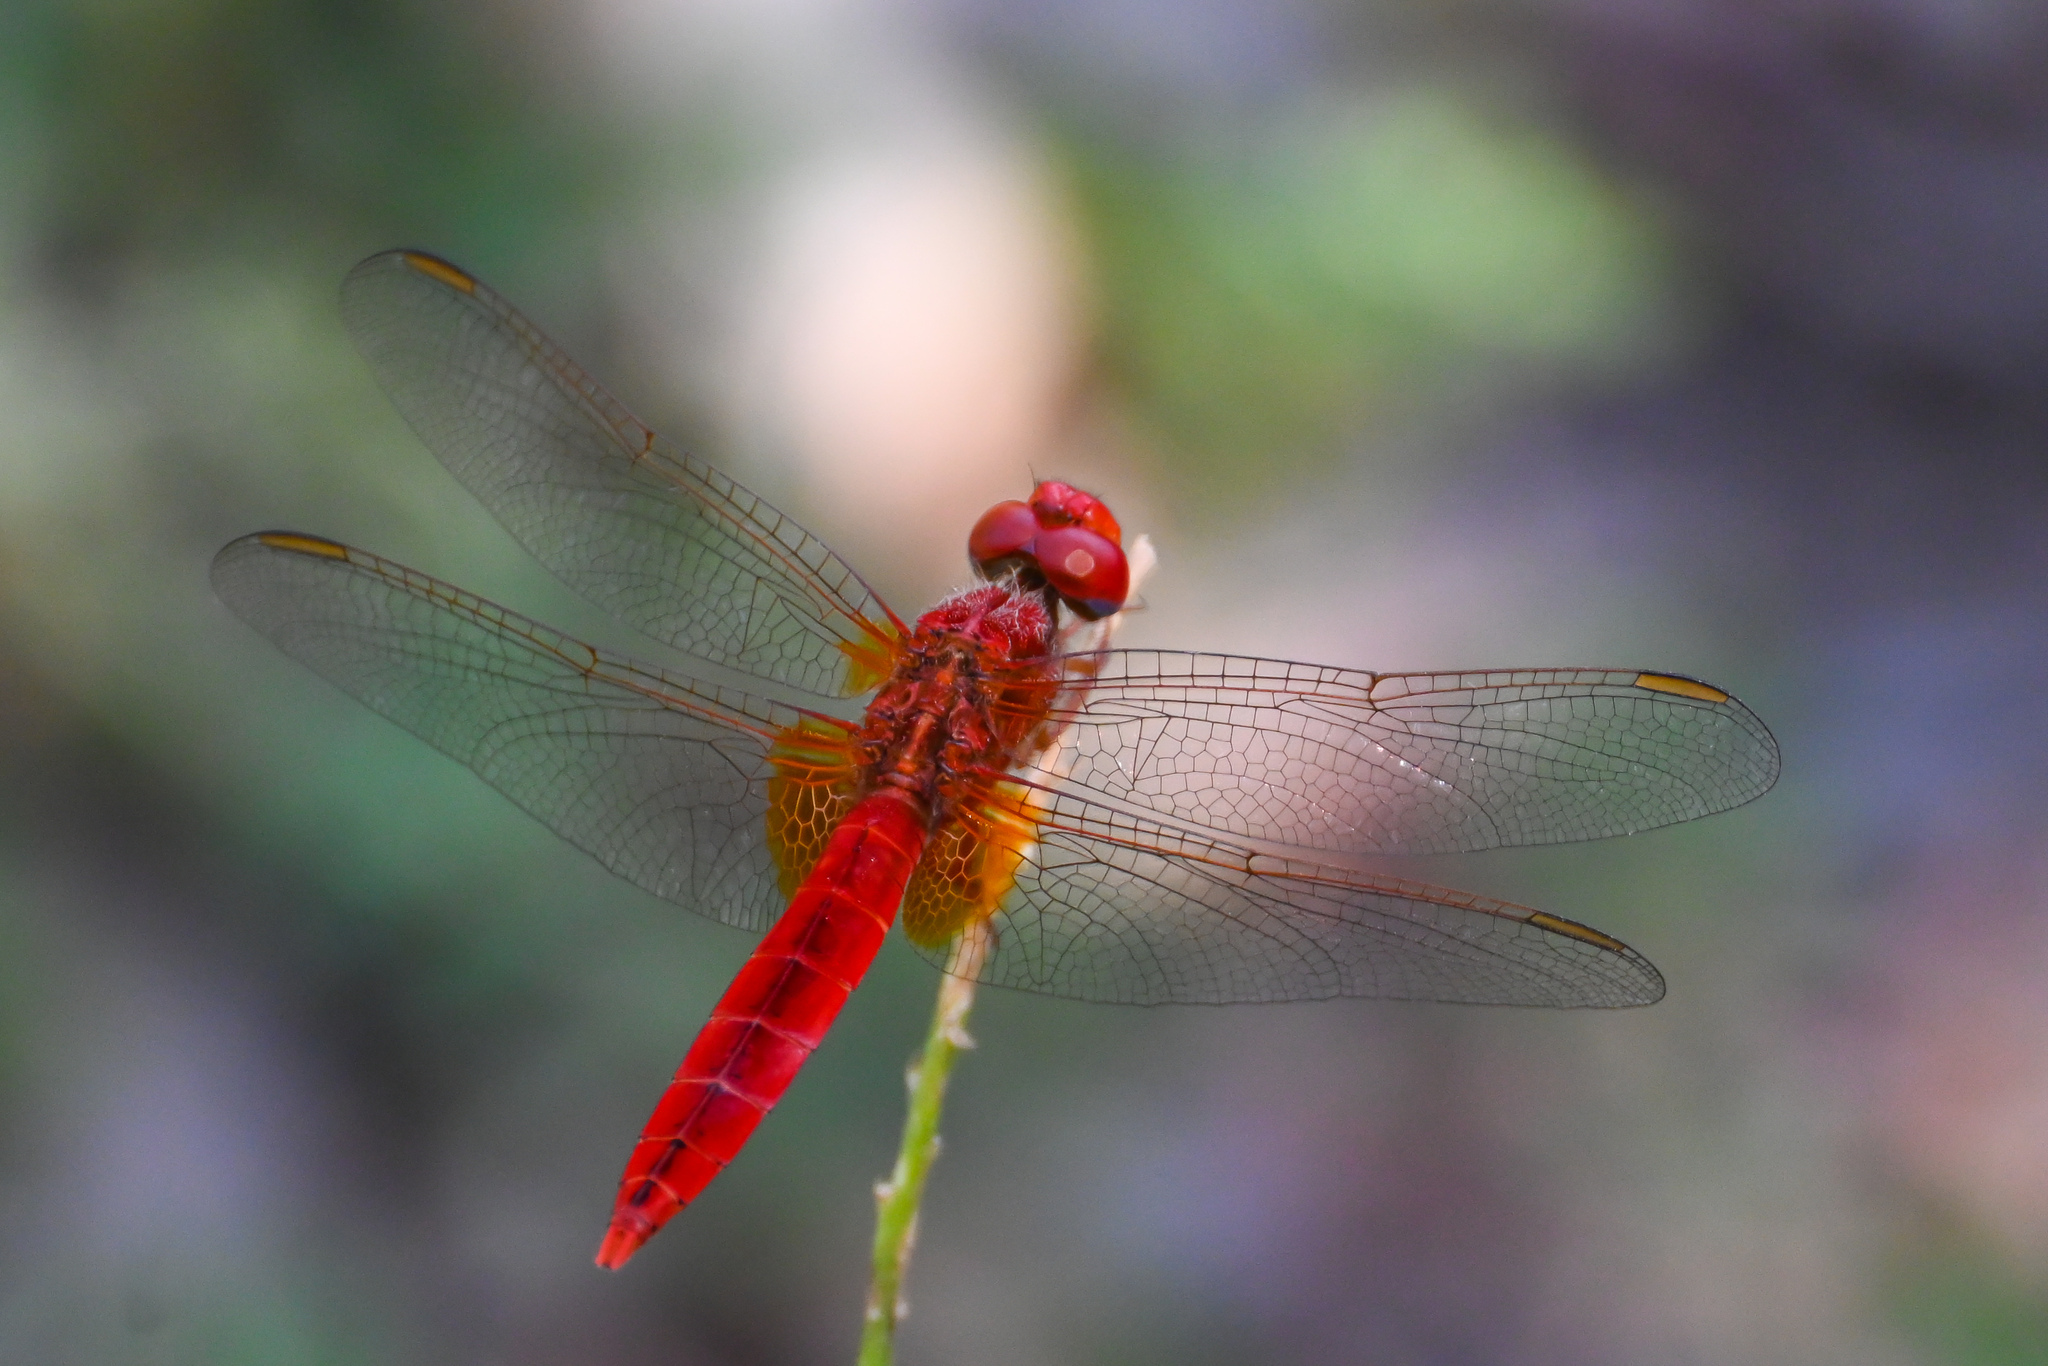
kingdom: Animalia
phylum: Arthropoda
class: Insecta
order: Odonata
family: Libellulidae
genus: Crocothemis
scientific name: Crocothemis erythraea
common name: Scarlet dragonfly
